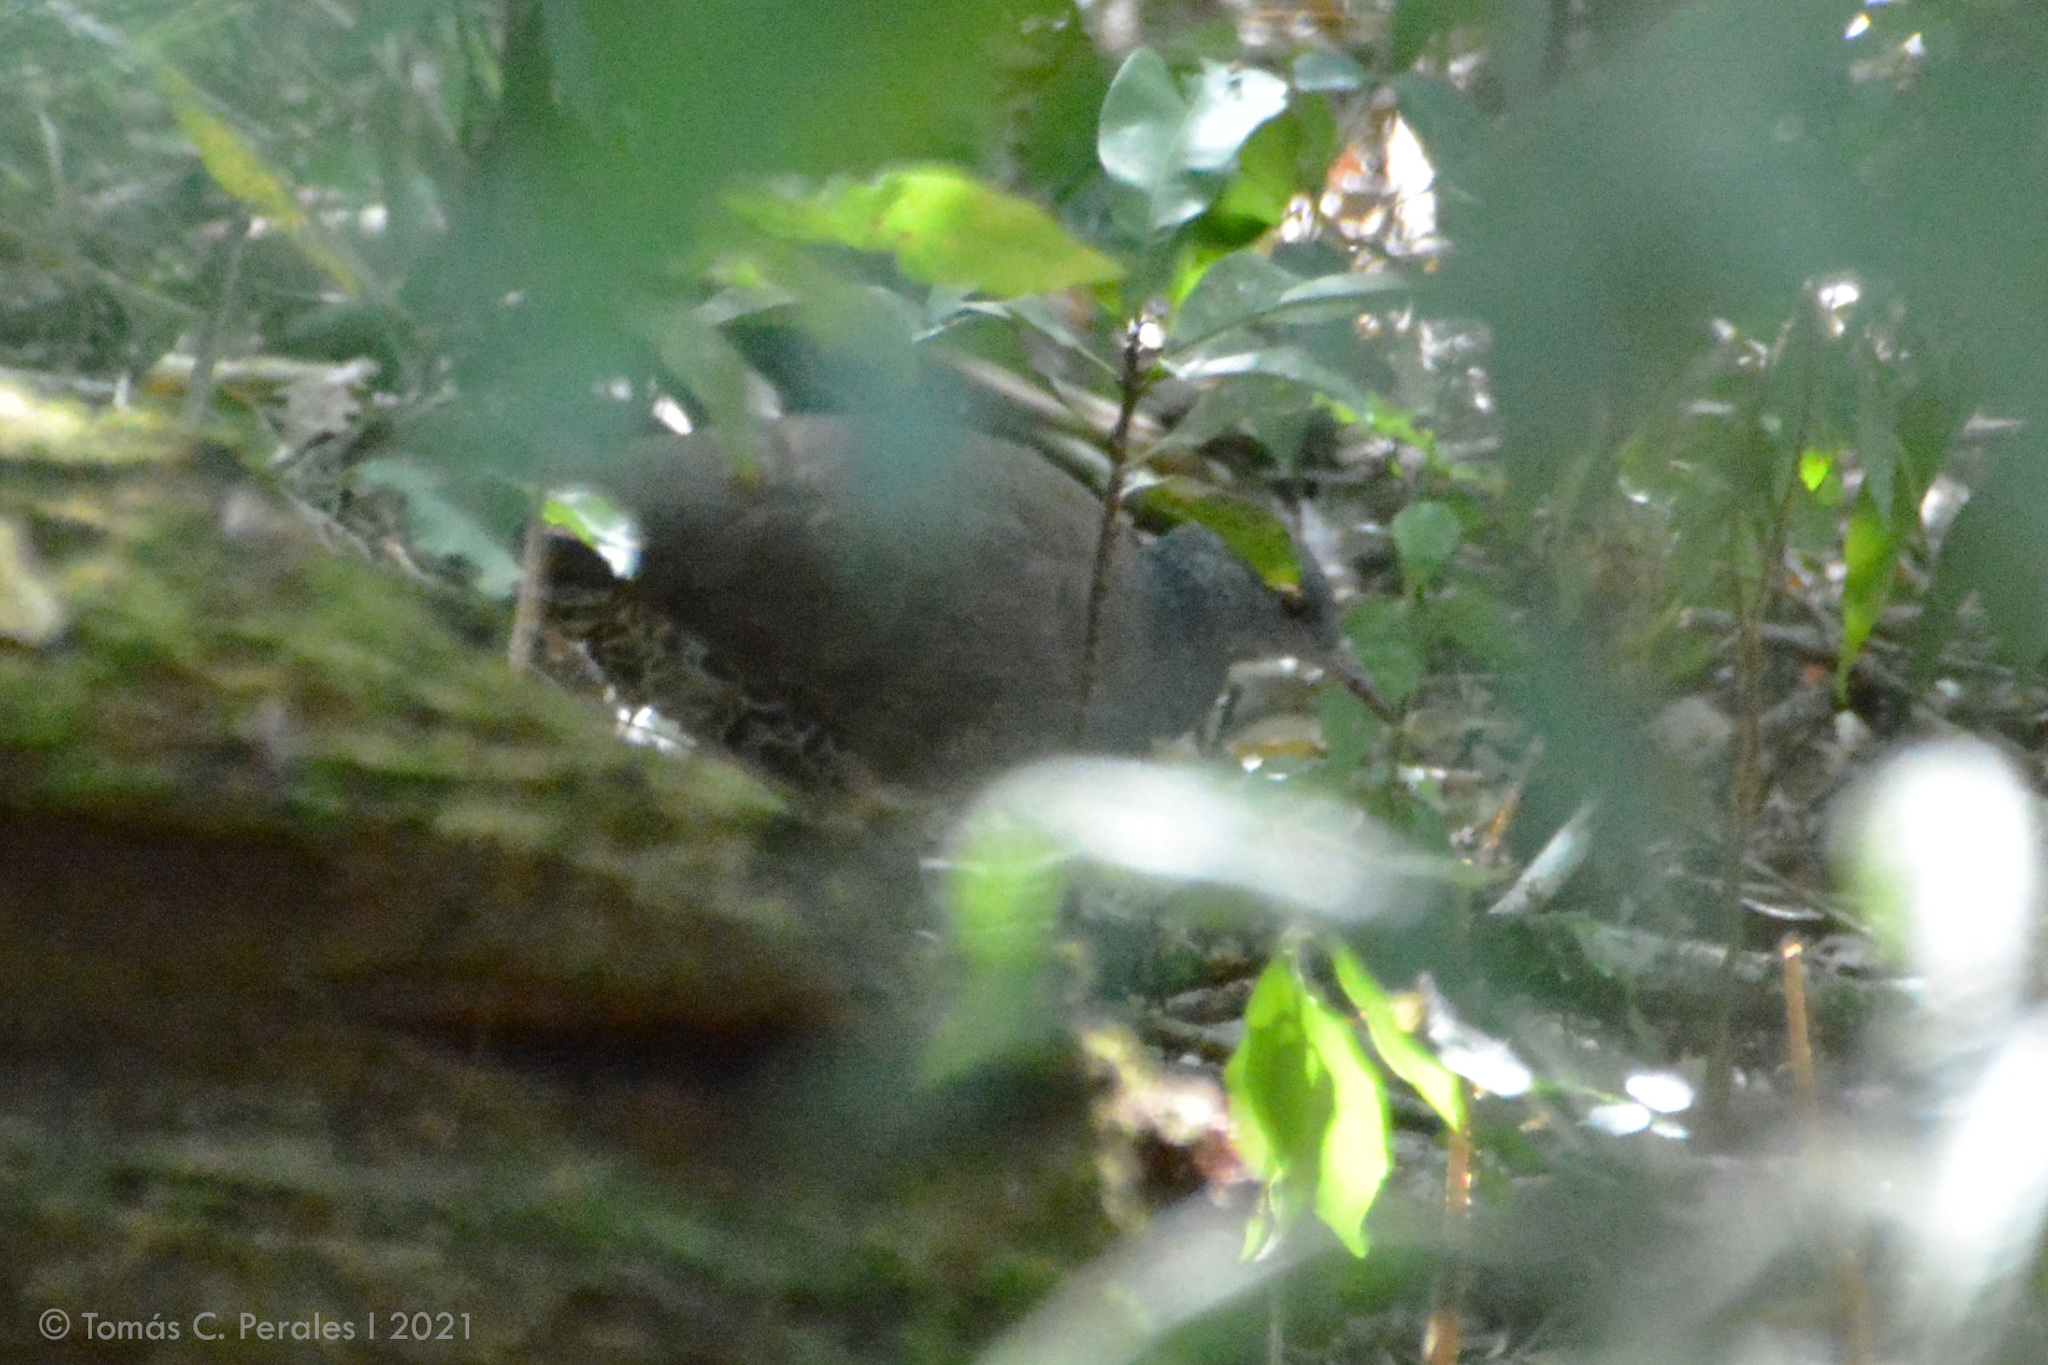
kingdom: Animalia
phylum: Chordata
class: Aves
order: Tinamiformes
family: Tinamidae
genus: Crypturellus
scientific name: Crypturellus obsoletus
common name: Brown tinamou
